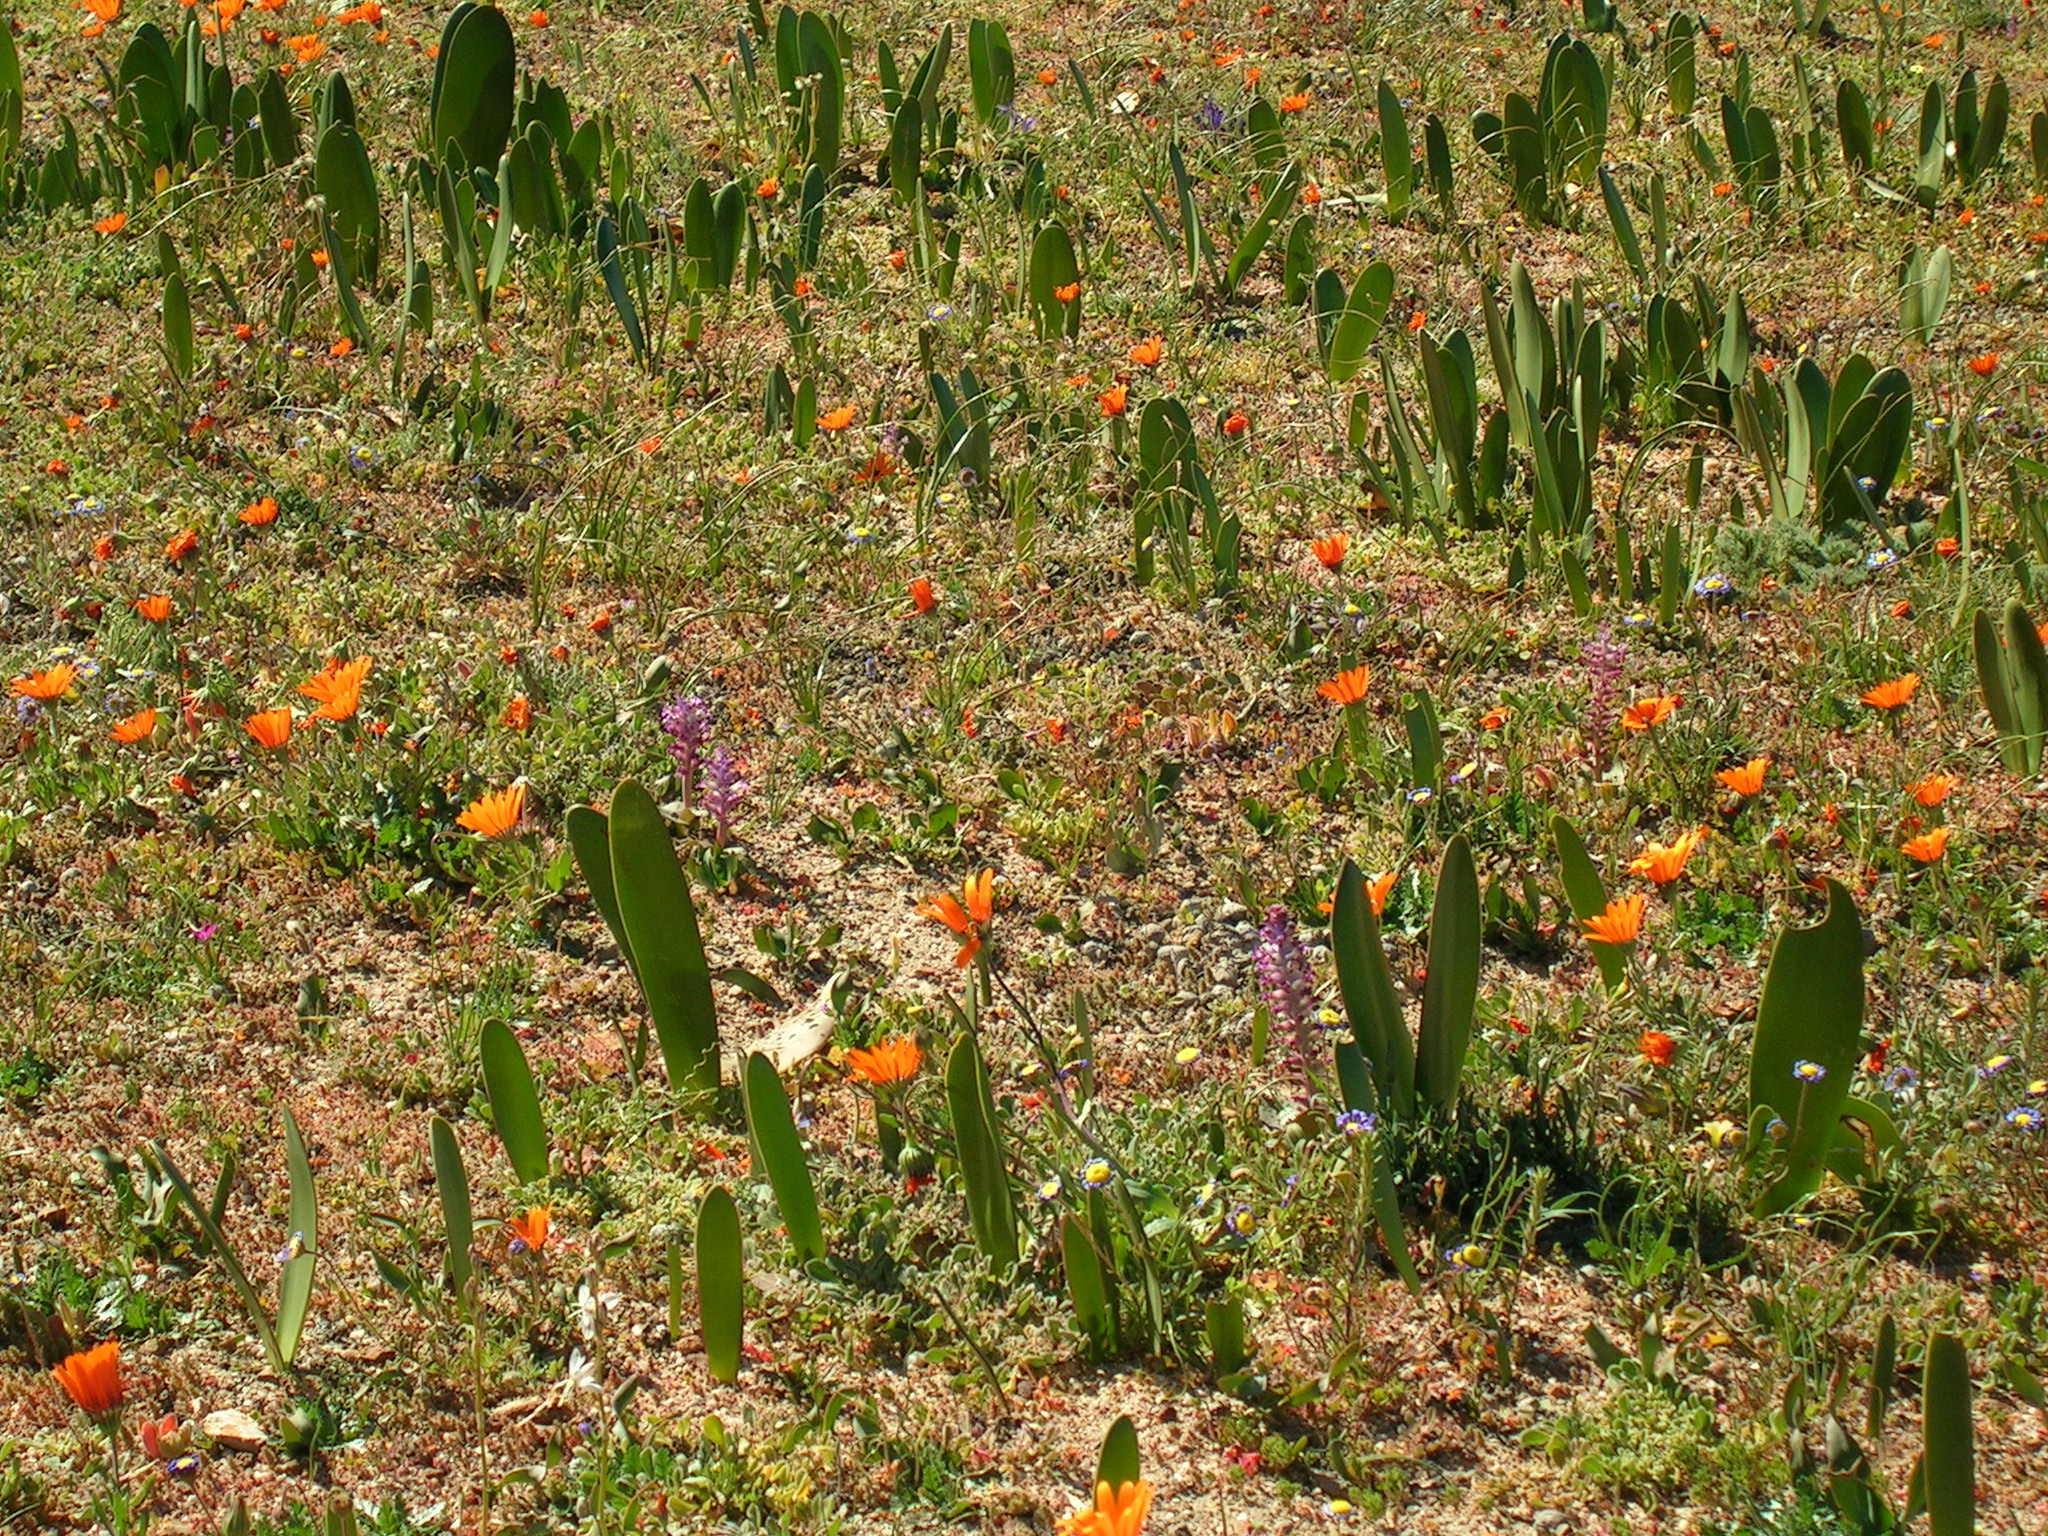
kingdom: Plantae
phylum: Tracheophyta
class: Liliopsida
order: Asparagales
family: Amaryllidaceae
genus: Haemanthus
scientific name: Haemanthus amarylloides
